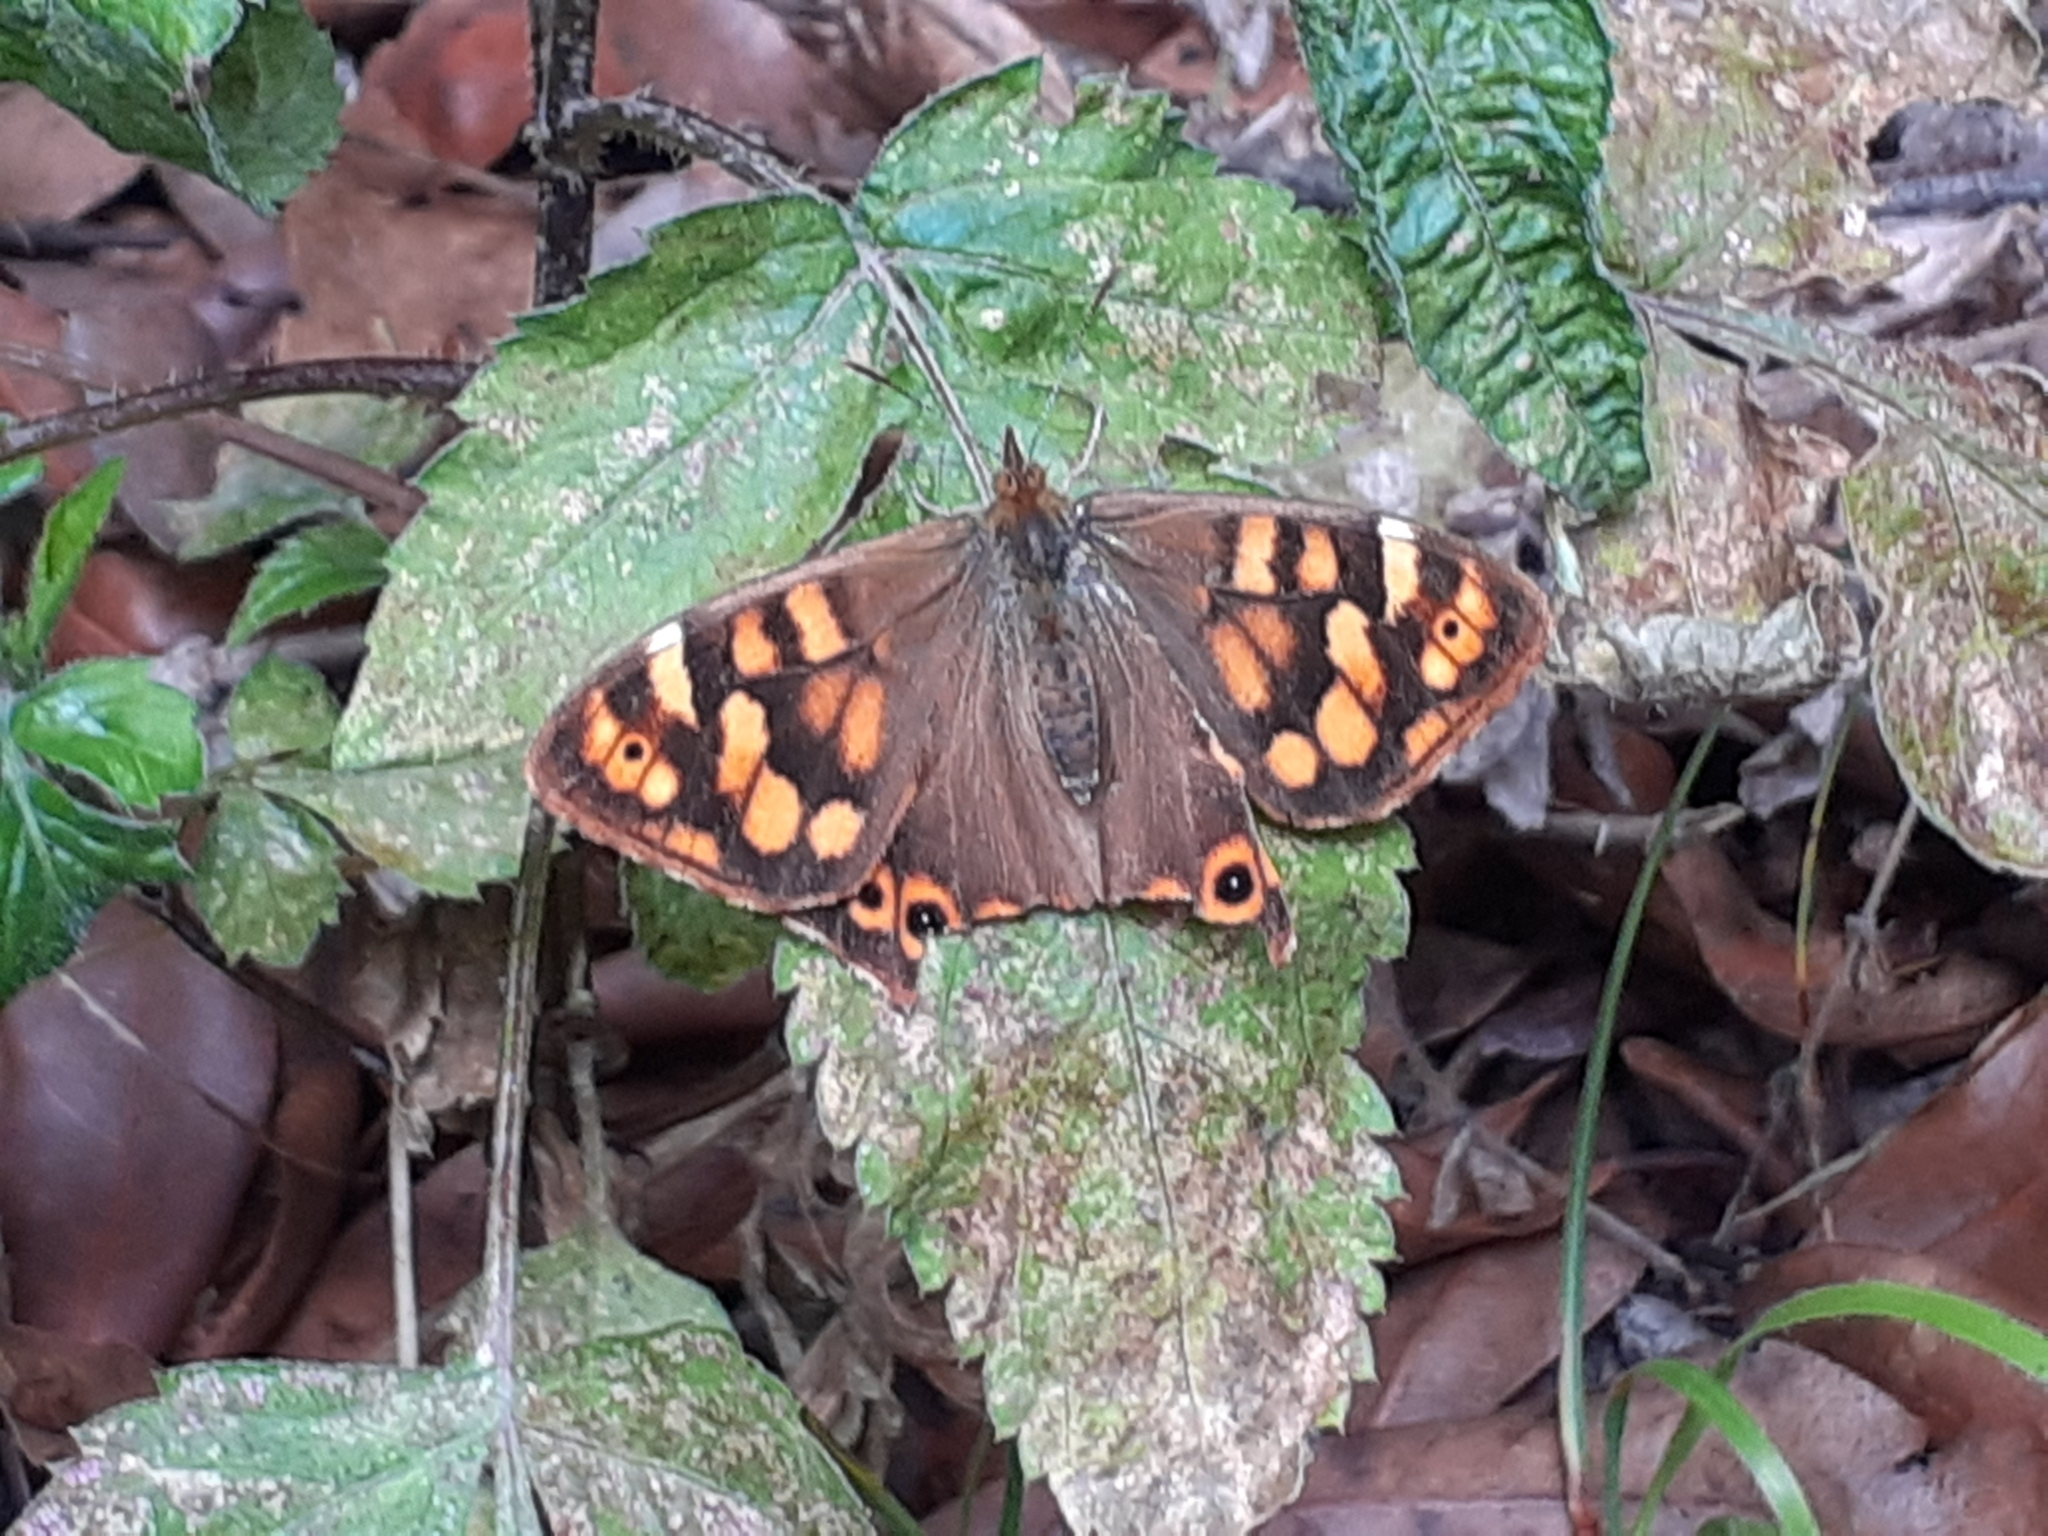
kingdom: Animalia
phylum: Arthropoda
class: Insecta
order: Lepidoptera
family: Nymphalidae
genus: Pararge
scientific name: Pararge aegeria
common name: Speckled wood
